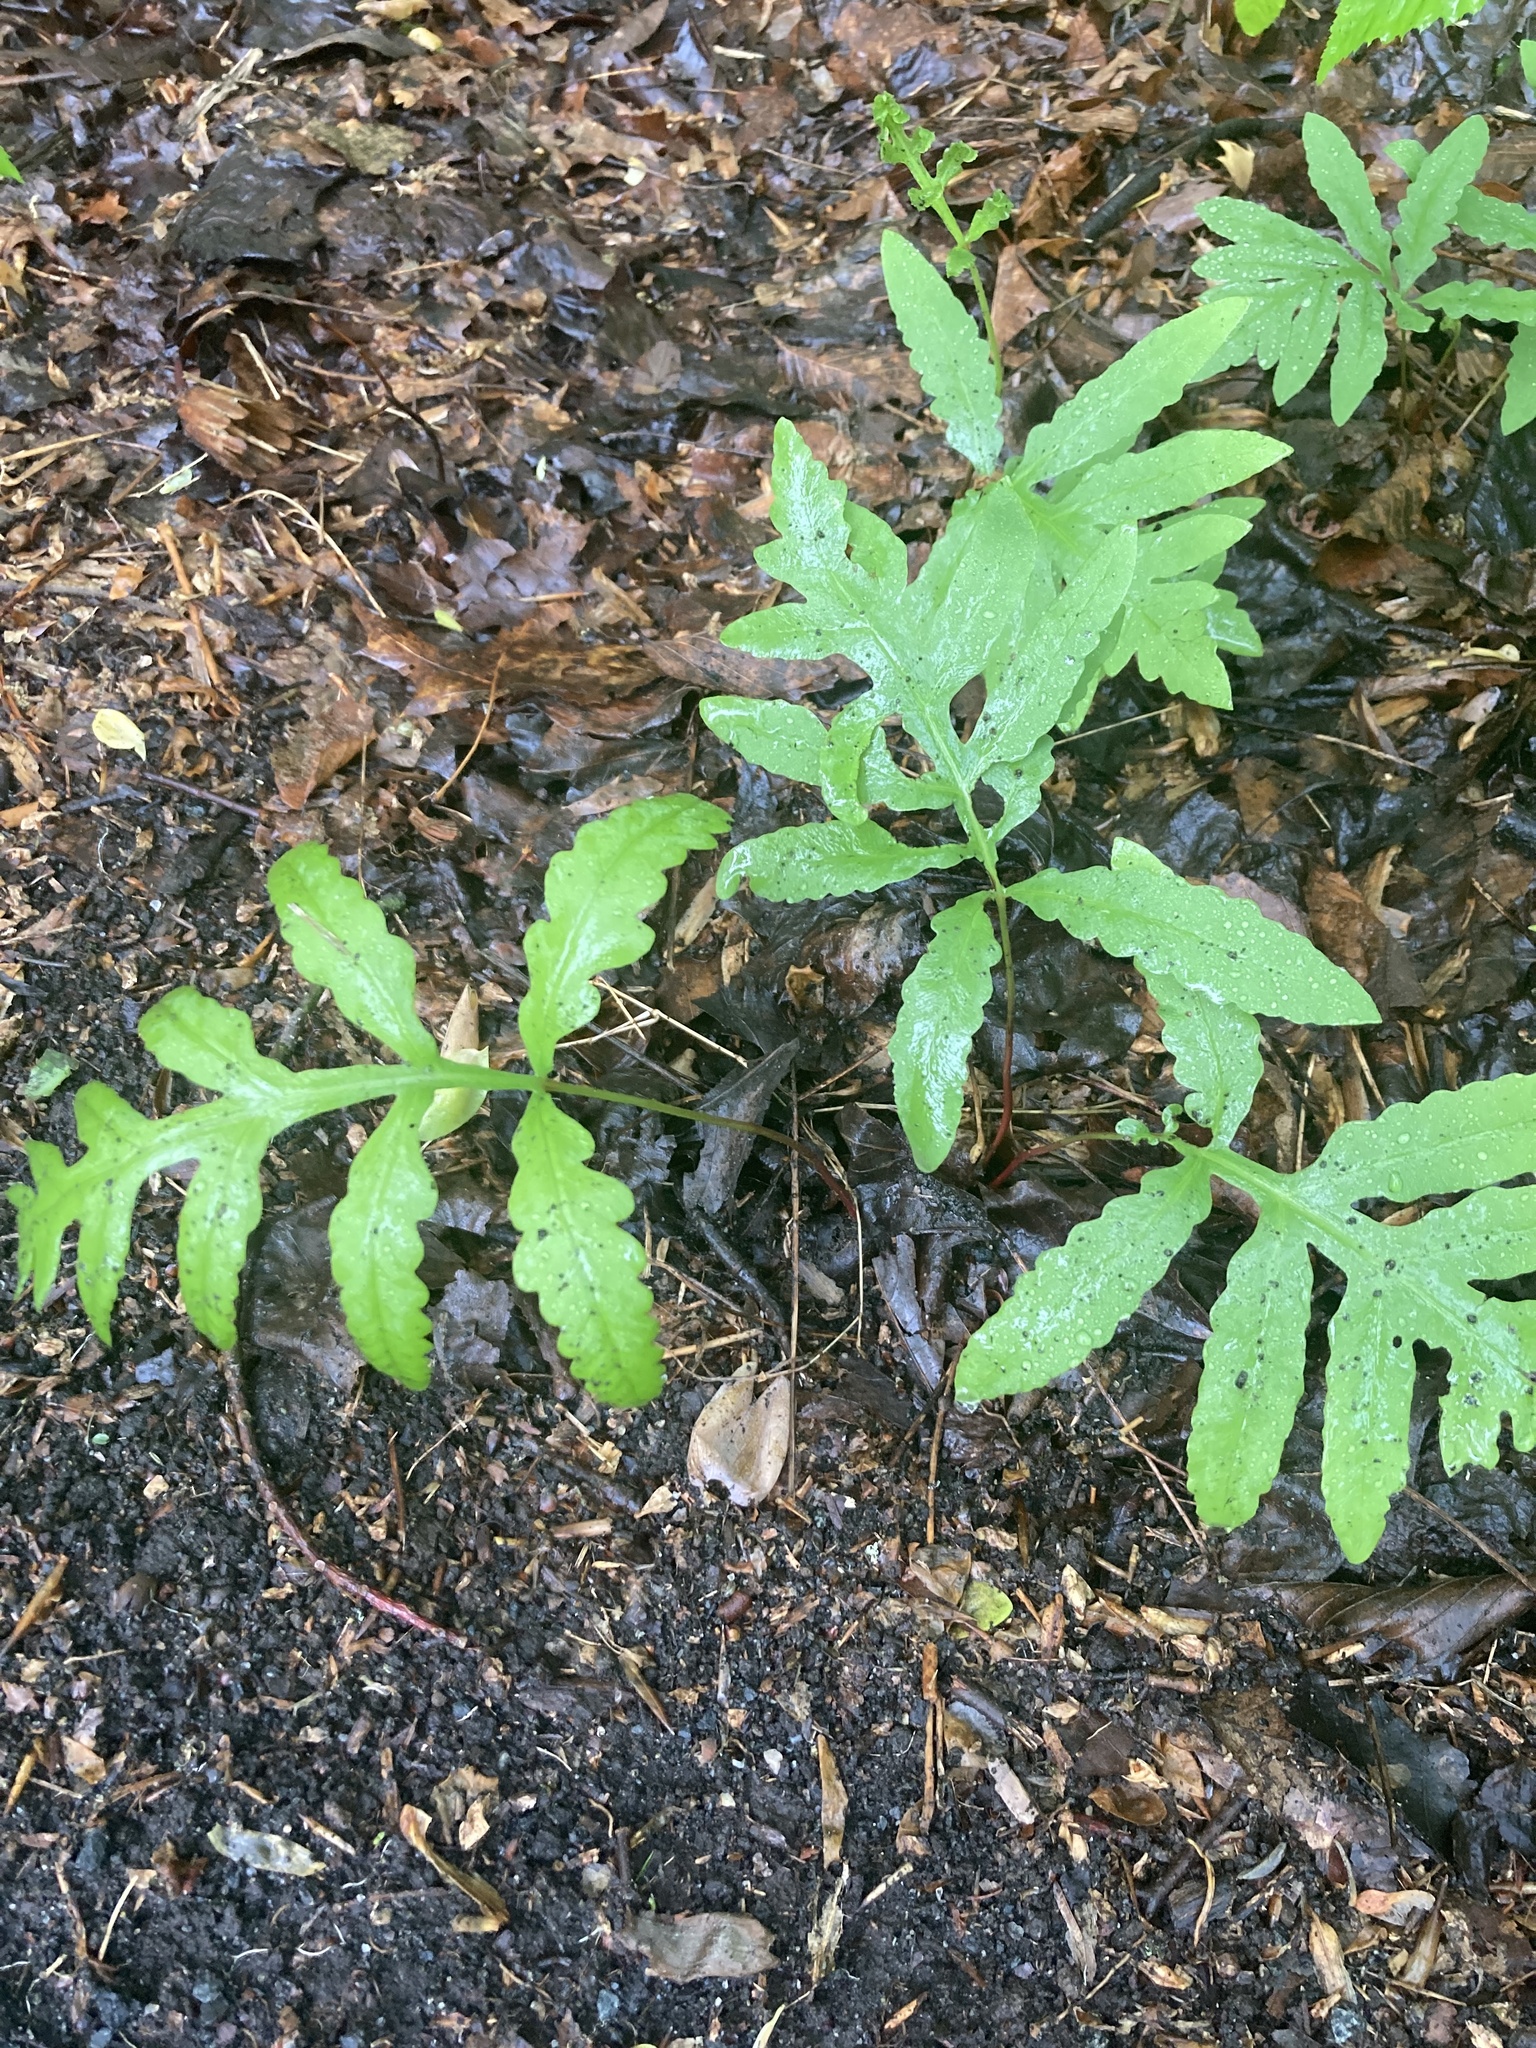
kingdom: Plantae
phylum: Tracheophyta
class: Polypodiopsida
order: Polypodiales
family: Onocleaceae
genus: Onoclea
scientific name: Onoclea sensibilis
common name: Sensitive fern
